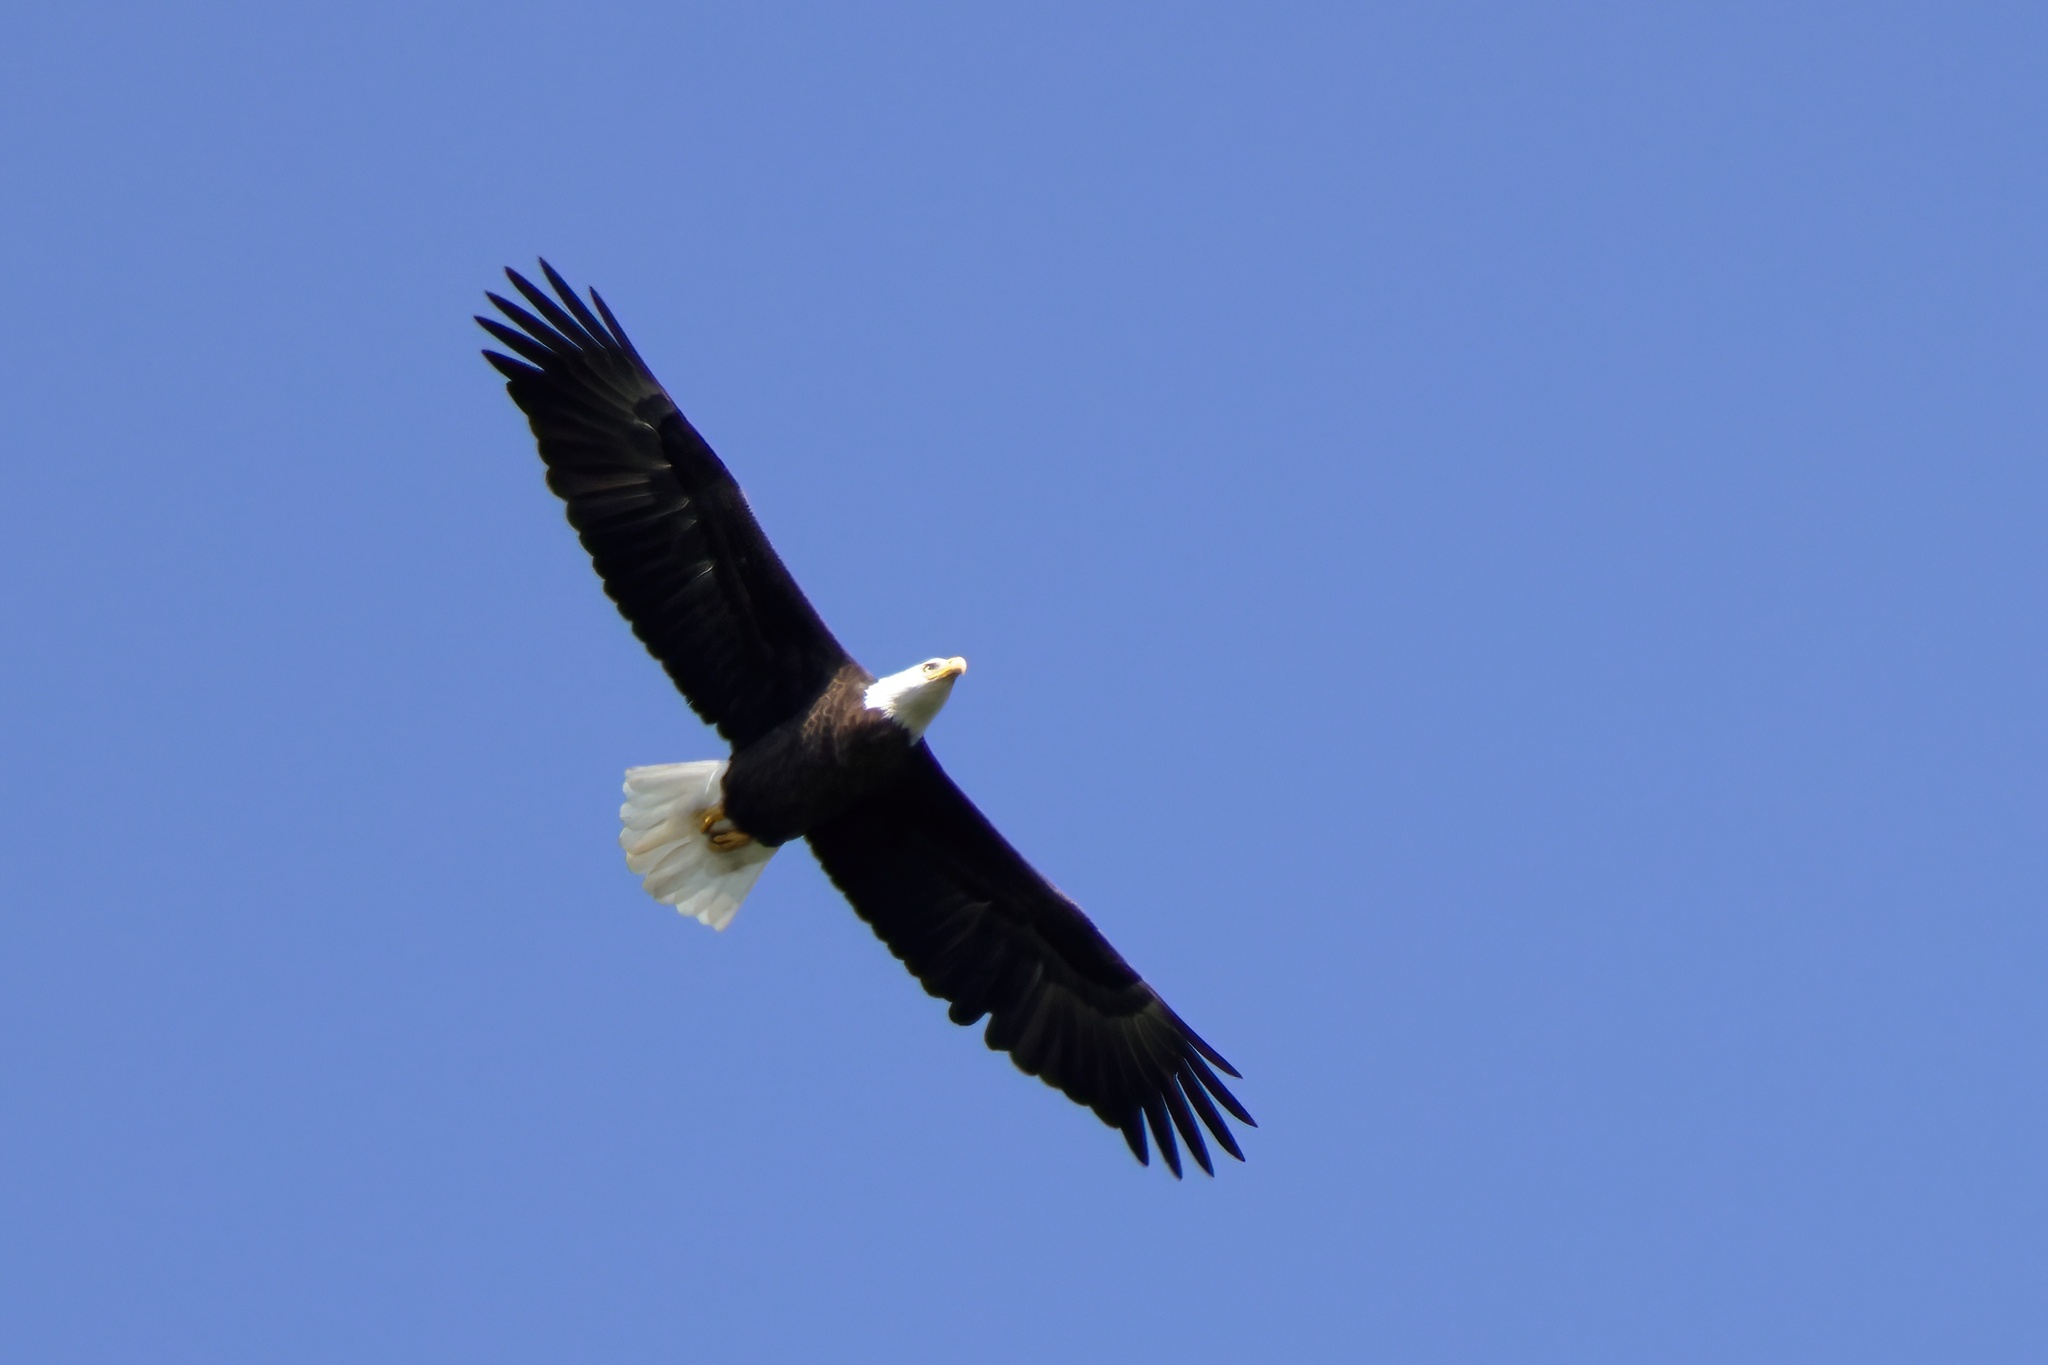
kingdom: Animalia
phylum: Chordata
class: Aves
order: Accipitriformes
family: Accipitridae
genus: Haliaeetus
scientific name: Haliaeetus leucocephalus
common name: Bald eagle
